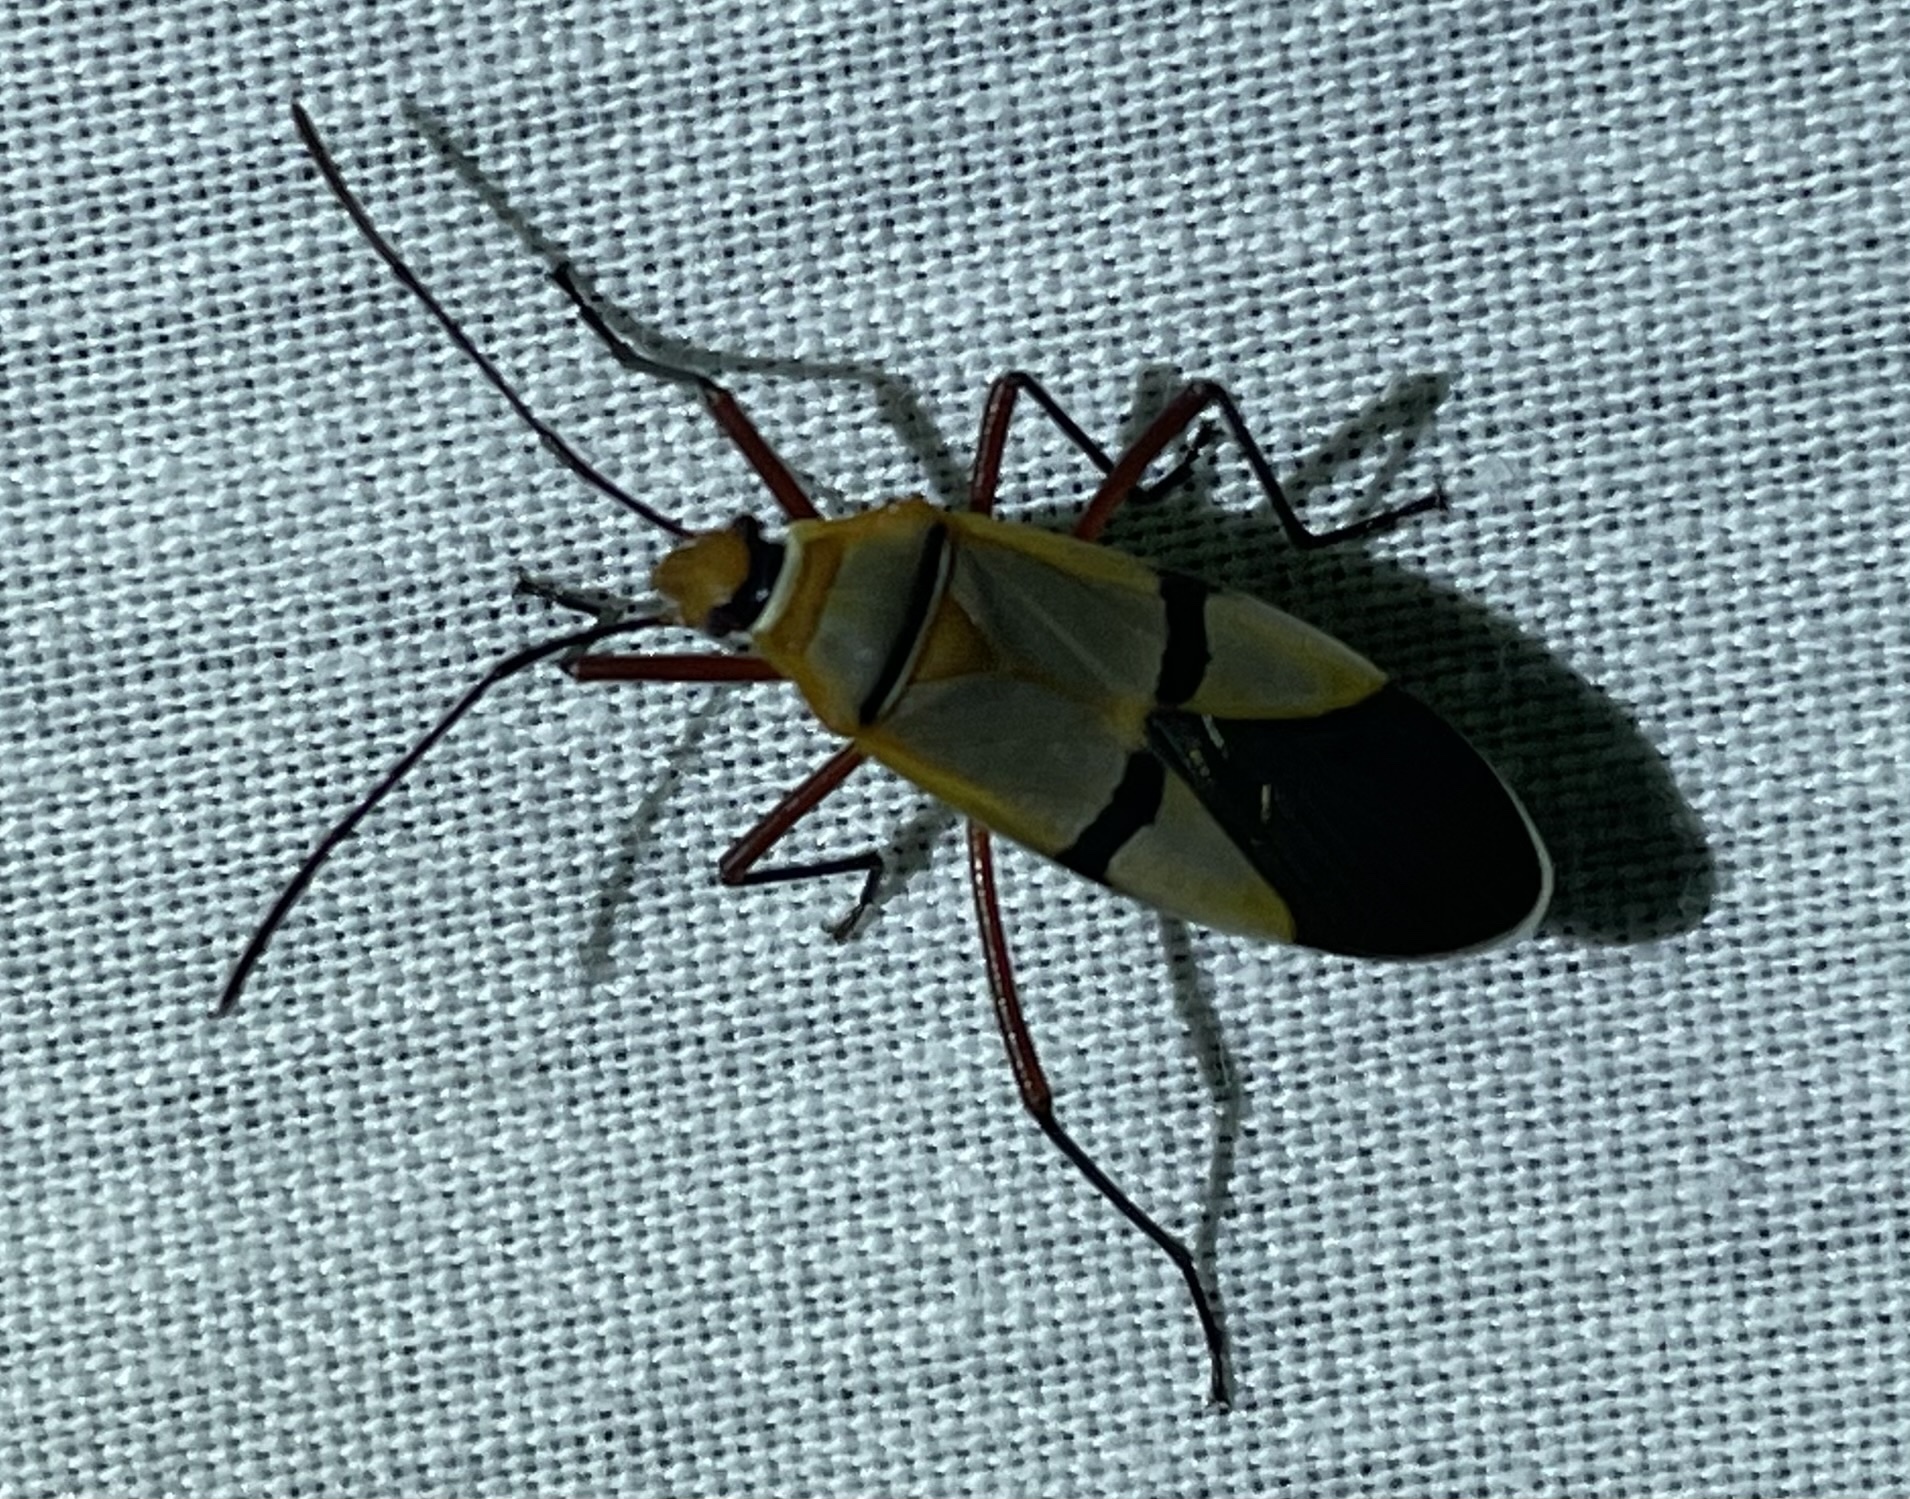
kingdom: Animalia
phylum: Arthropoda
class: Insecta
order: Hemiptera
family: Pyrrhocoridae
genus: Dysdercus
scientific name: Dysdercus
